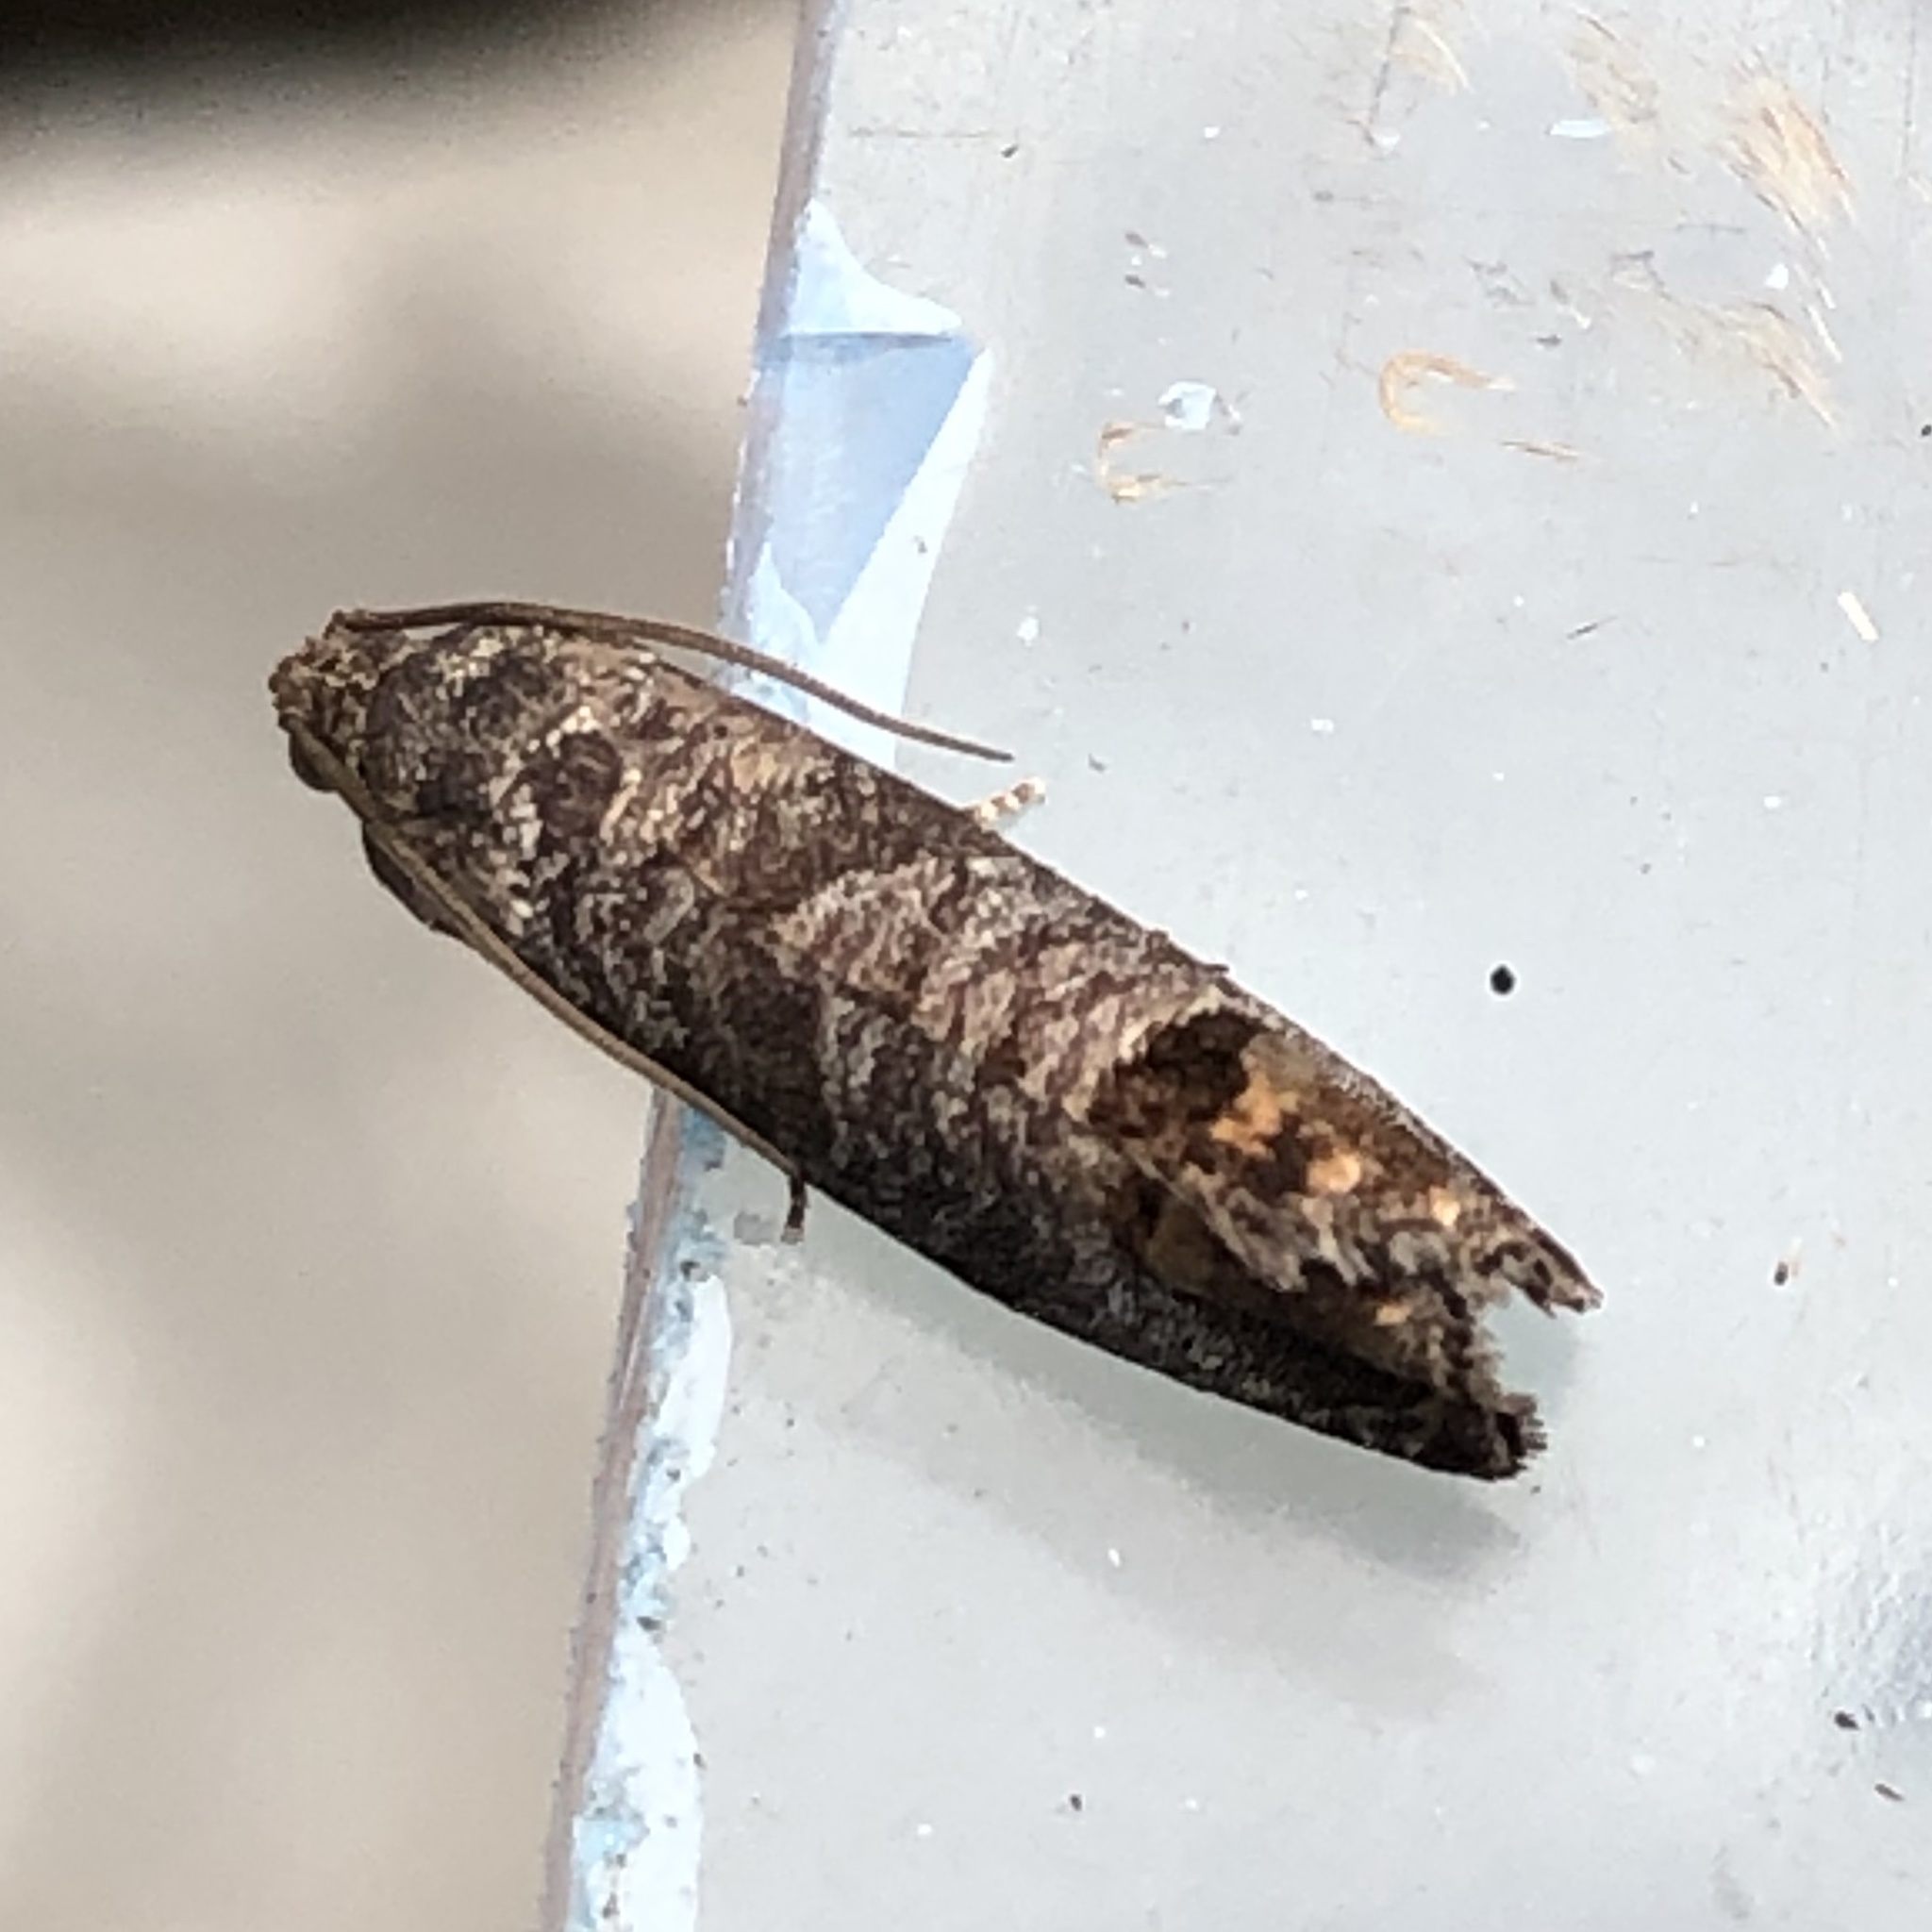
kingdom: Animalia
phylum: Arthropoda
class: Insecta
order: Lepidoptera
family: Tortricidae
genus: Cydia
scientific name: Cydia pomonella
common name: Codling moth
